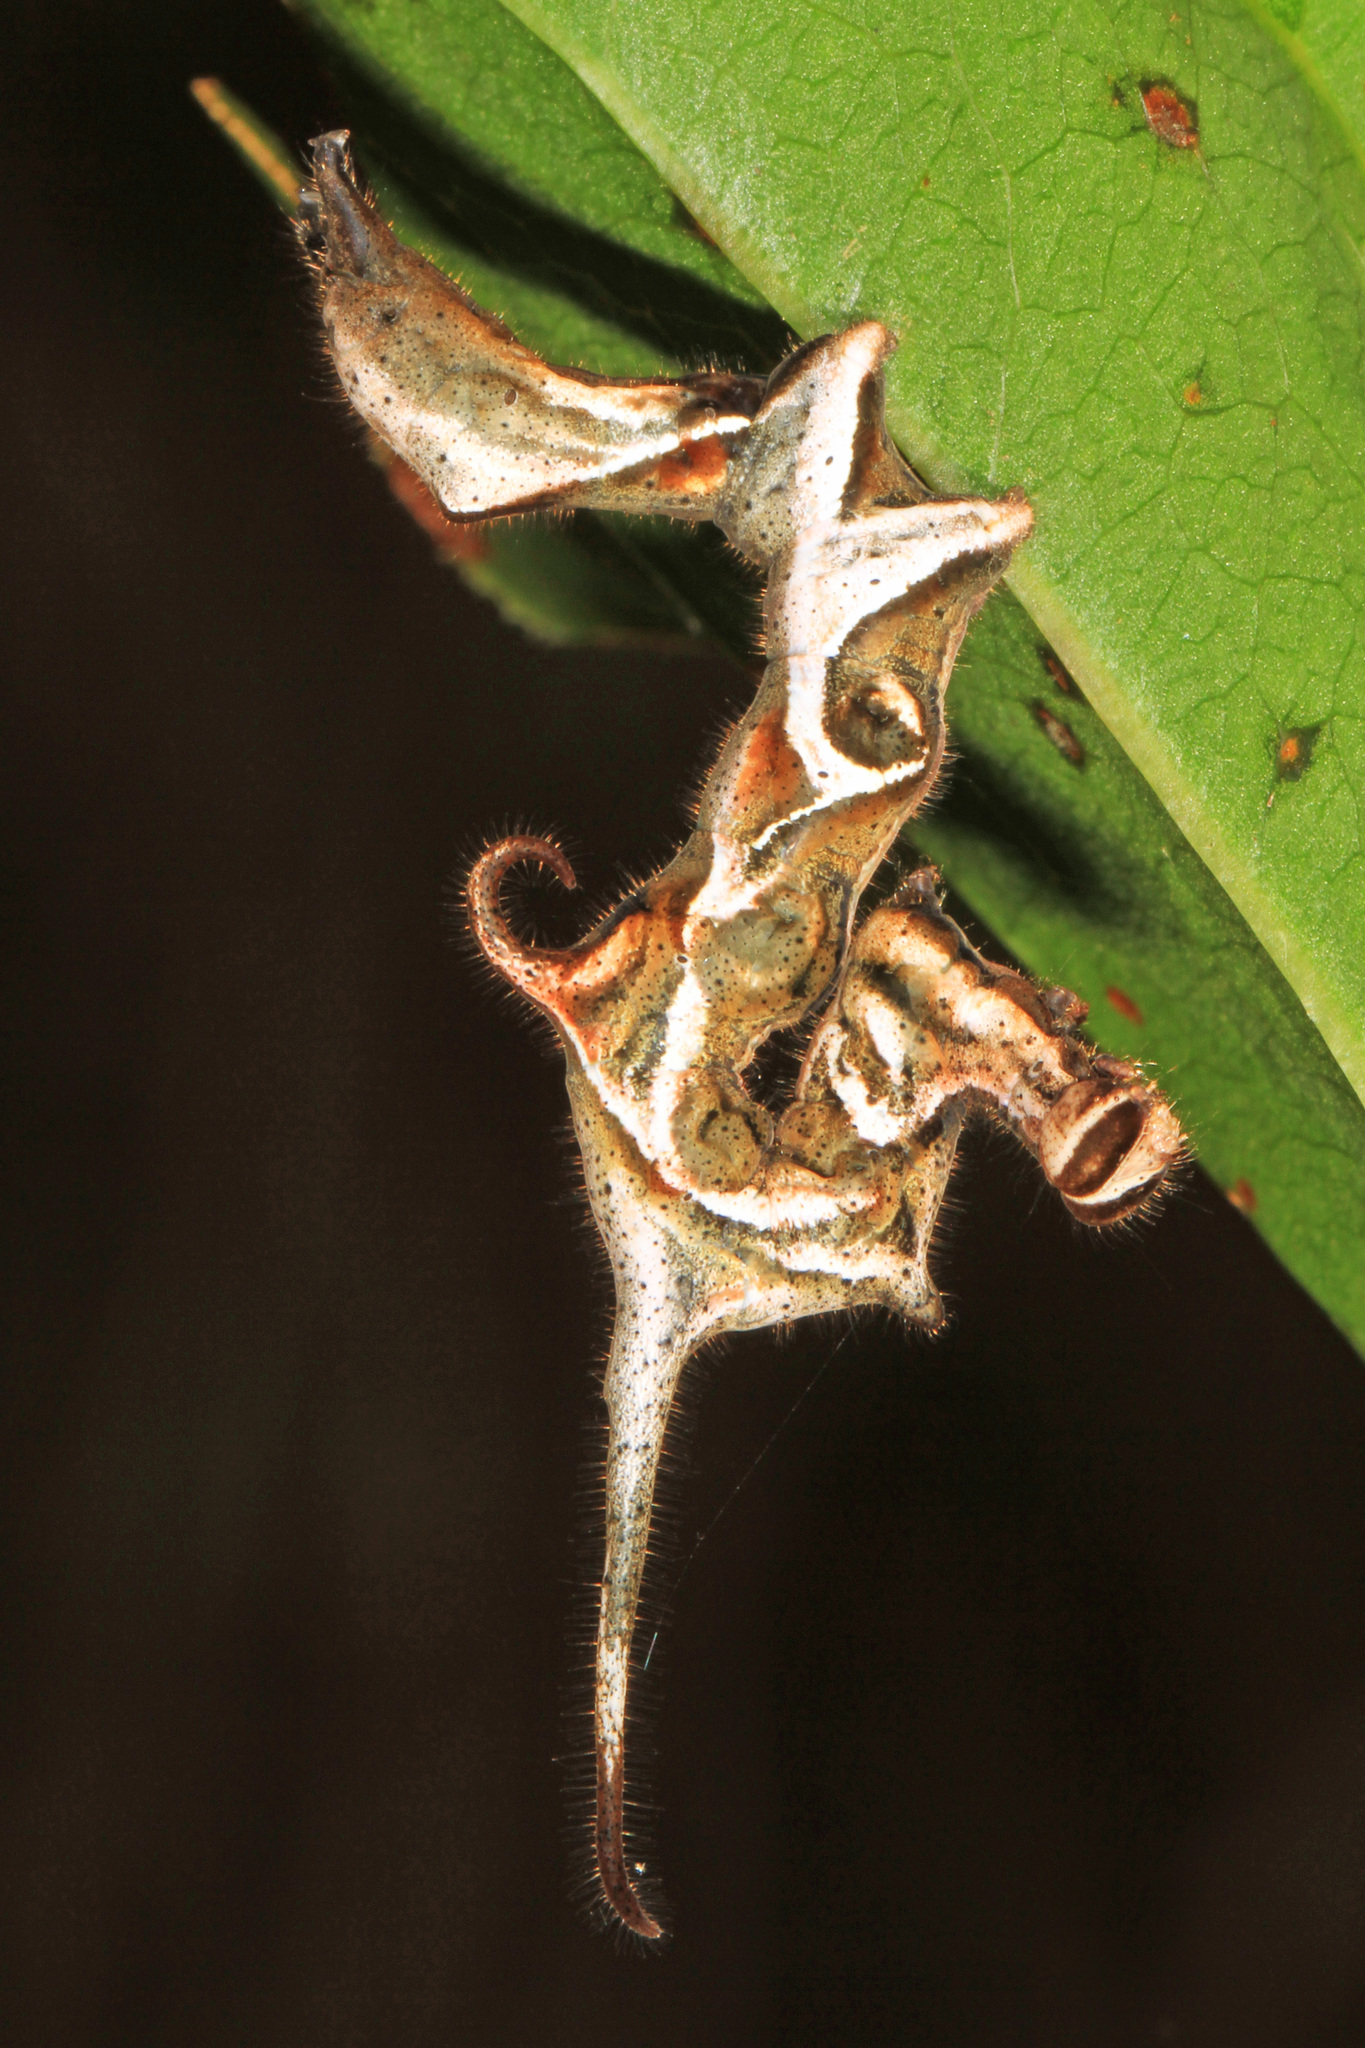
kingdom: Animalia
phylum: Arthropoda
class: Insecta
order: Lepidoptera
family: Erebidae
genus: Phyprosopus
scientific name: Phyprosopus callitrichoides
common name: Curved-lined owlet
